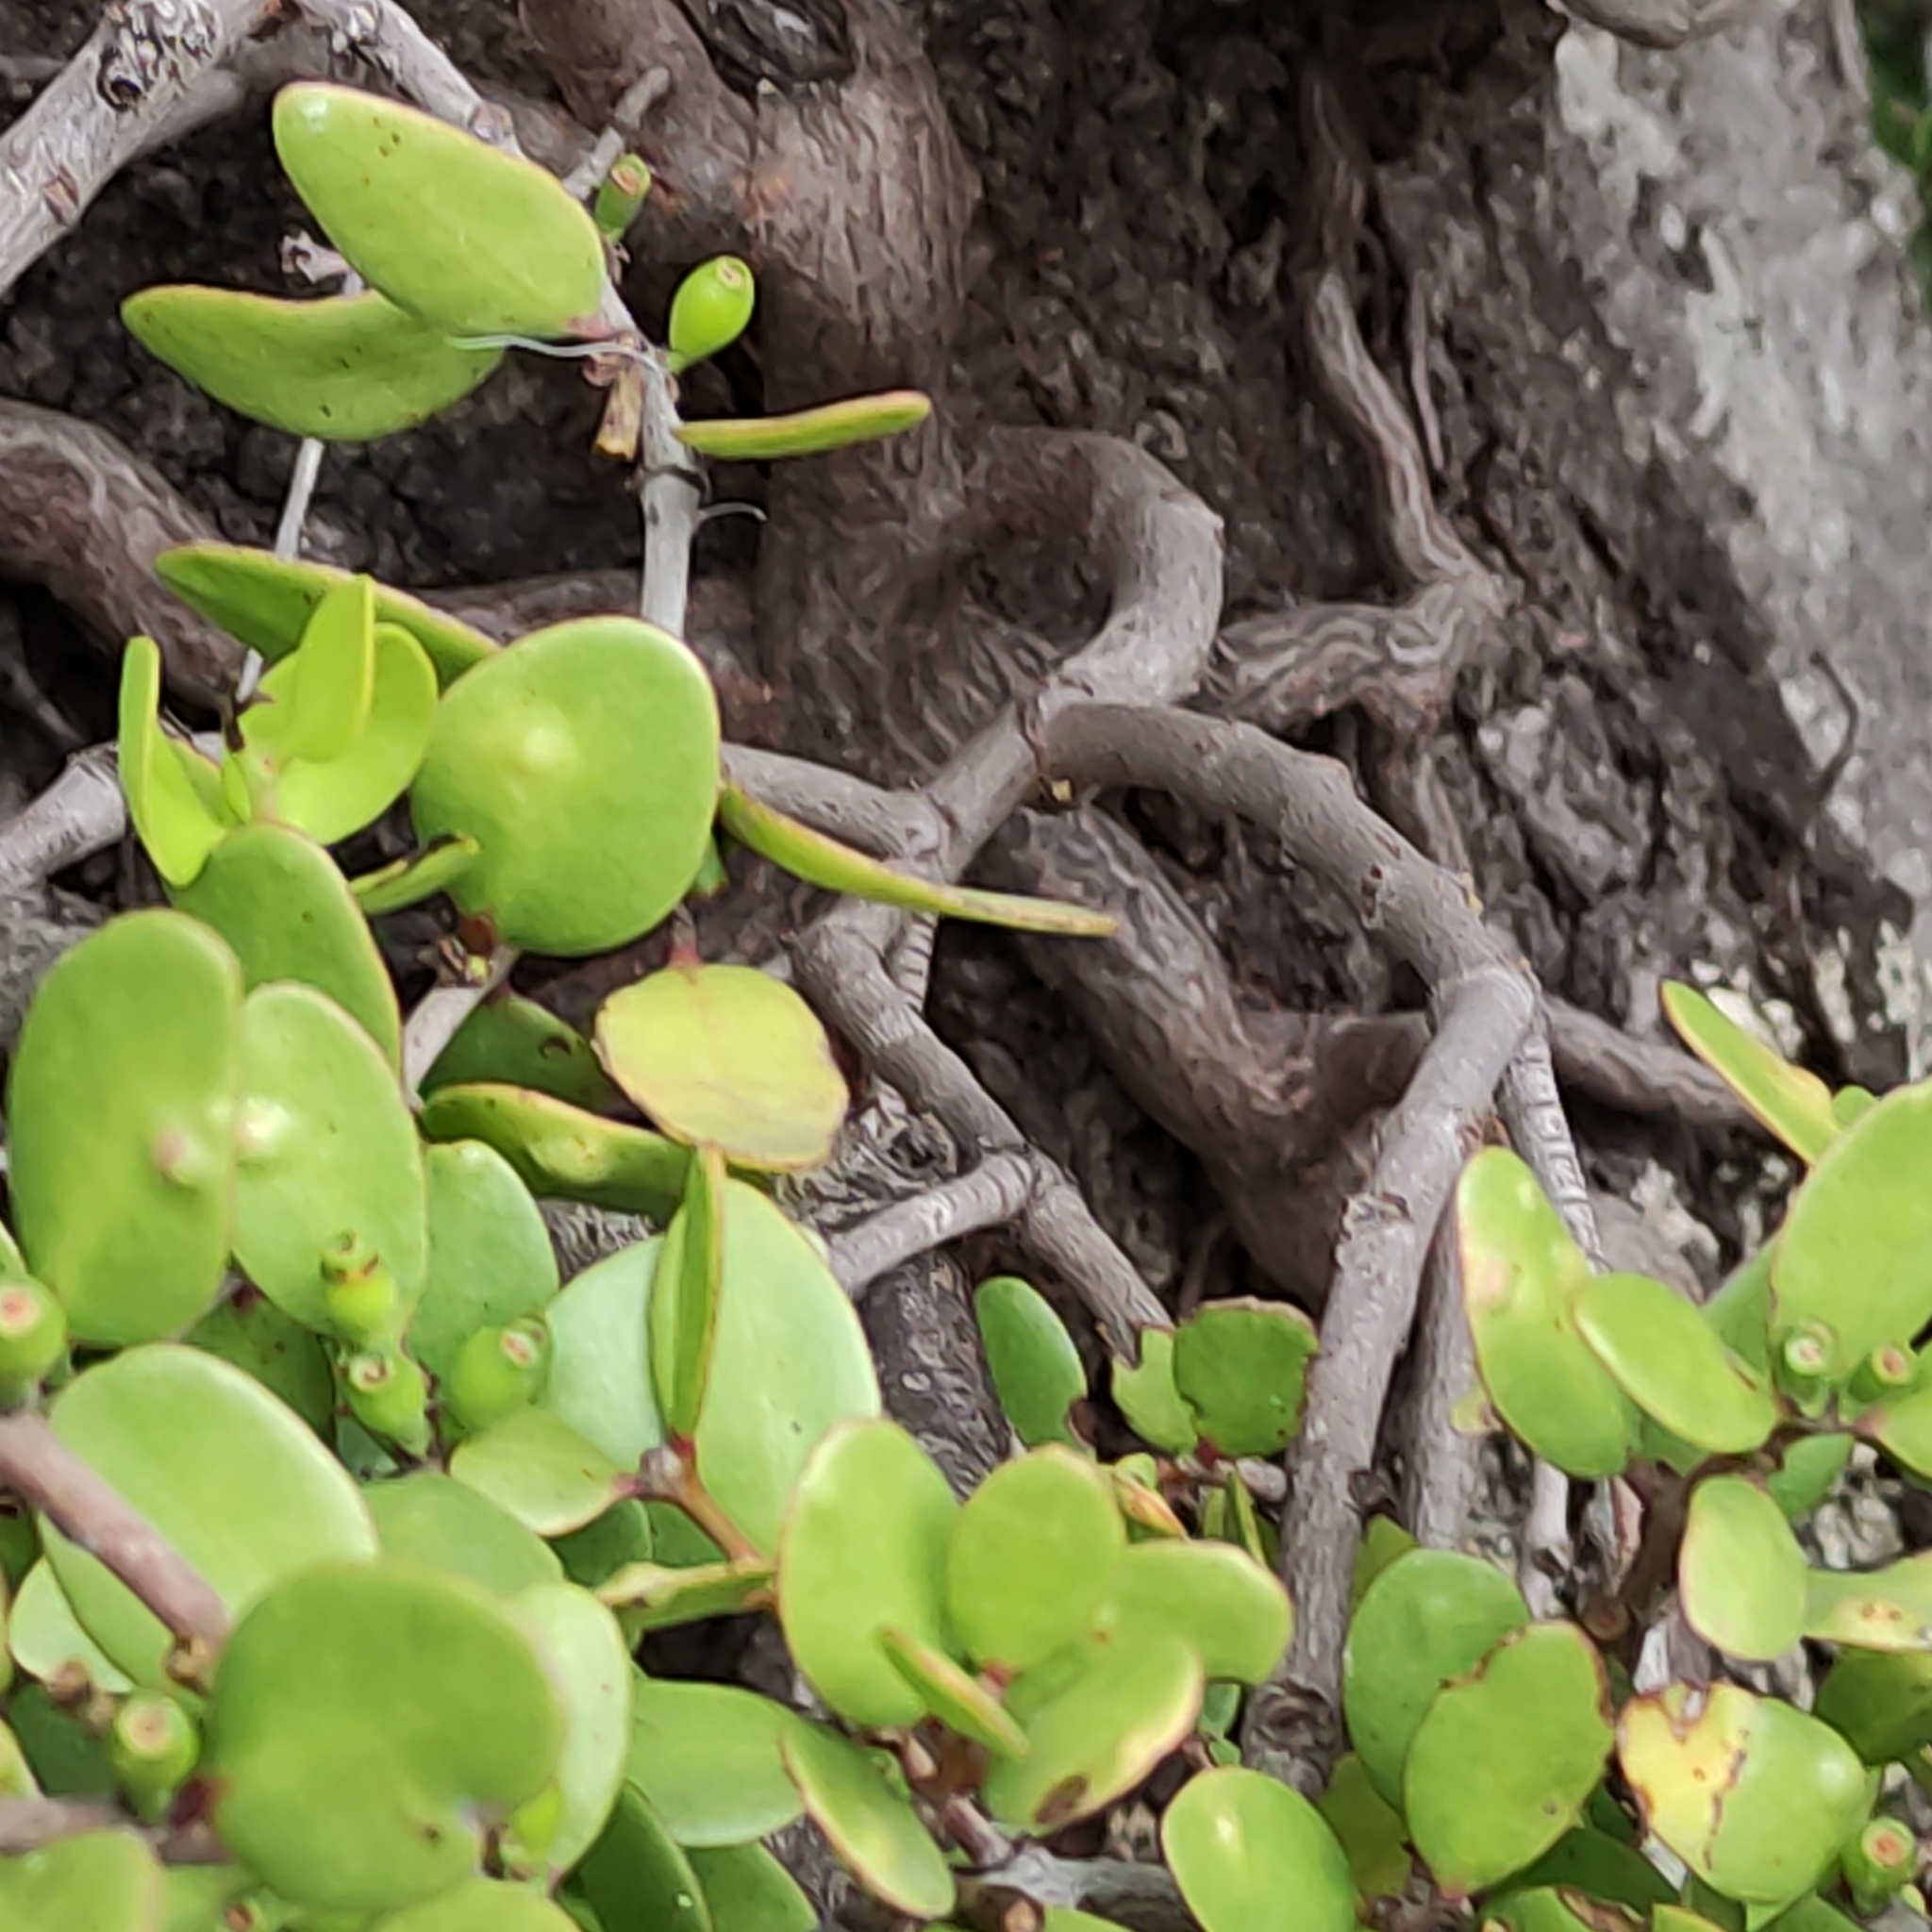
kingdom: Plantae
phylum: Tracheophyta
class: Magnoliopsida
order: Santalales
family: Loranthaceae
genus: Peraxilla
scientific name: Peraxilla tetrapetala
